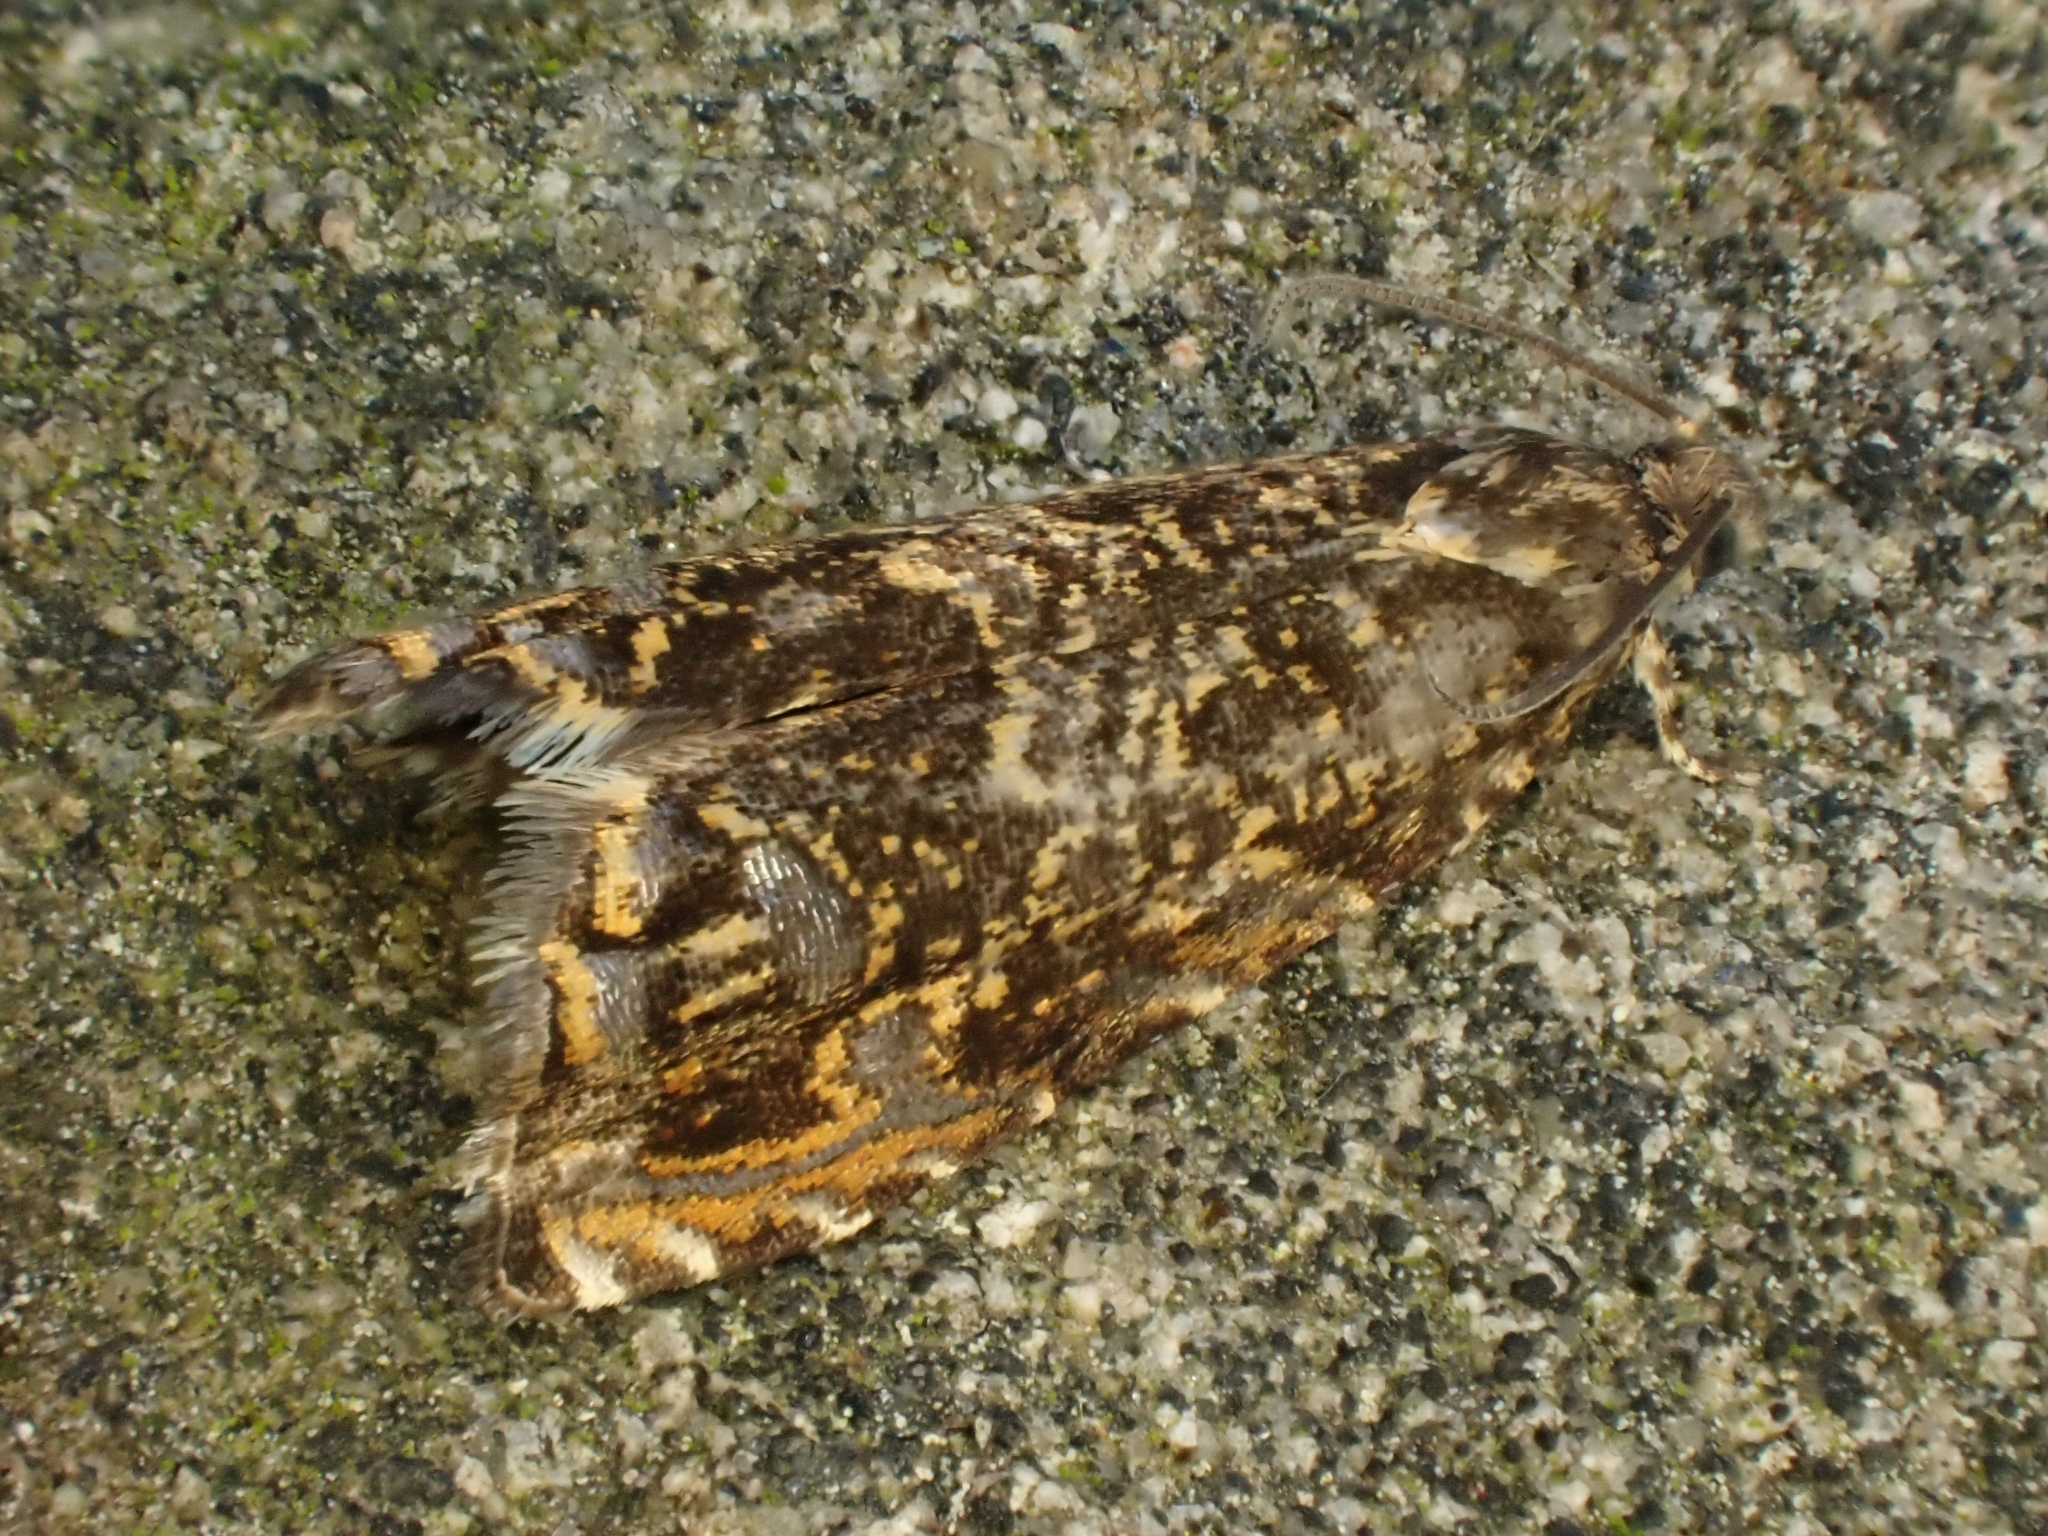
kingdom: Animalia
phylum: Arthropoda
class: Insecta
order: Lepidoptera
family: Tortricidae
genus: Enarmonia
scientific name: Enarmonia formosana
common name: Cherry bark tortrix
